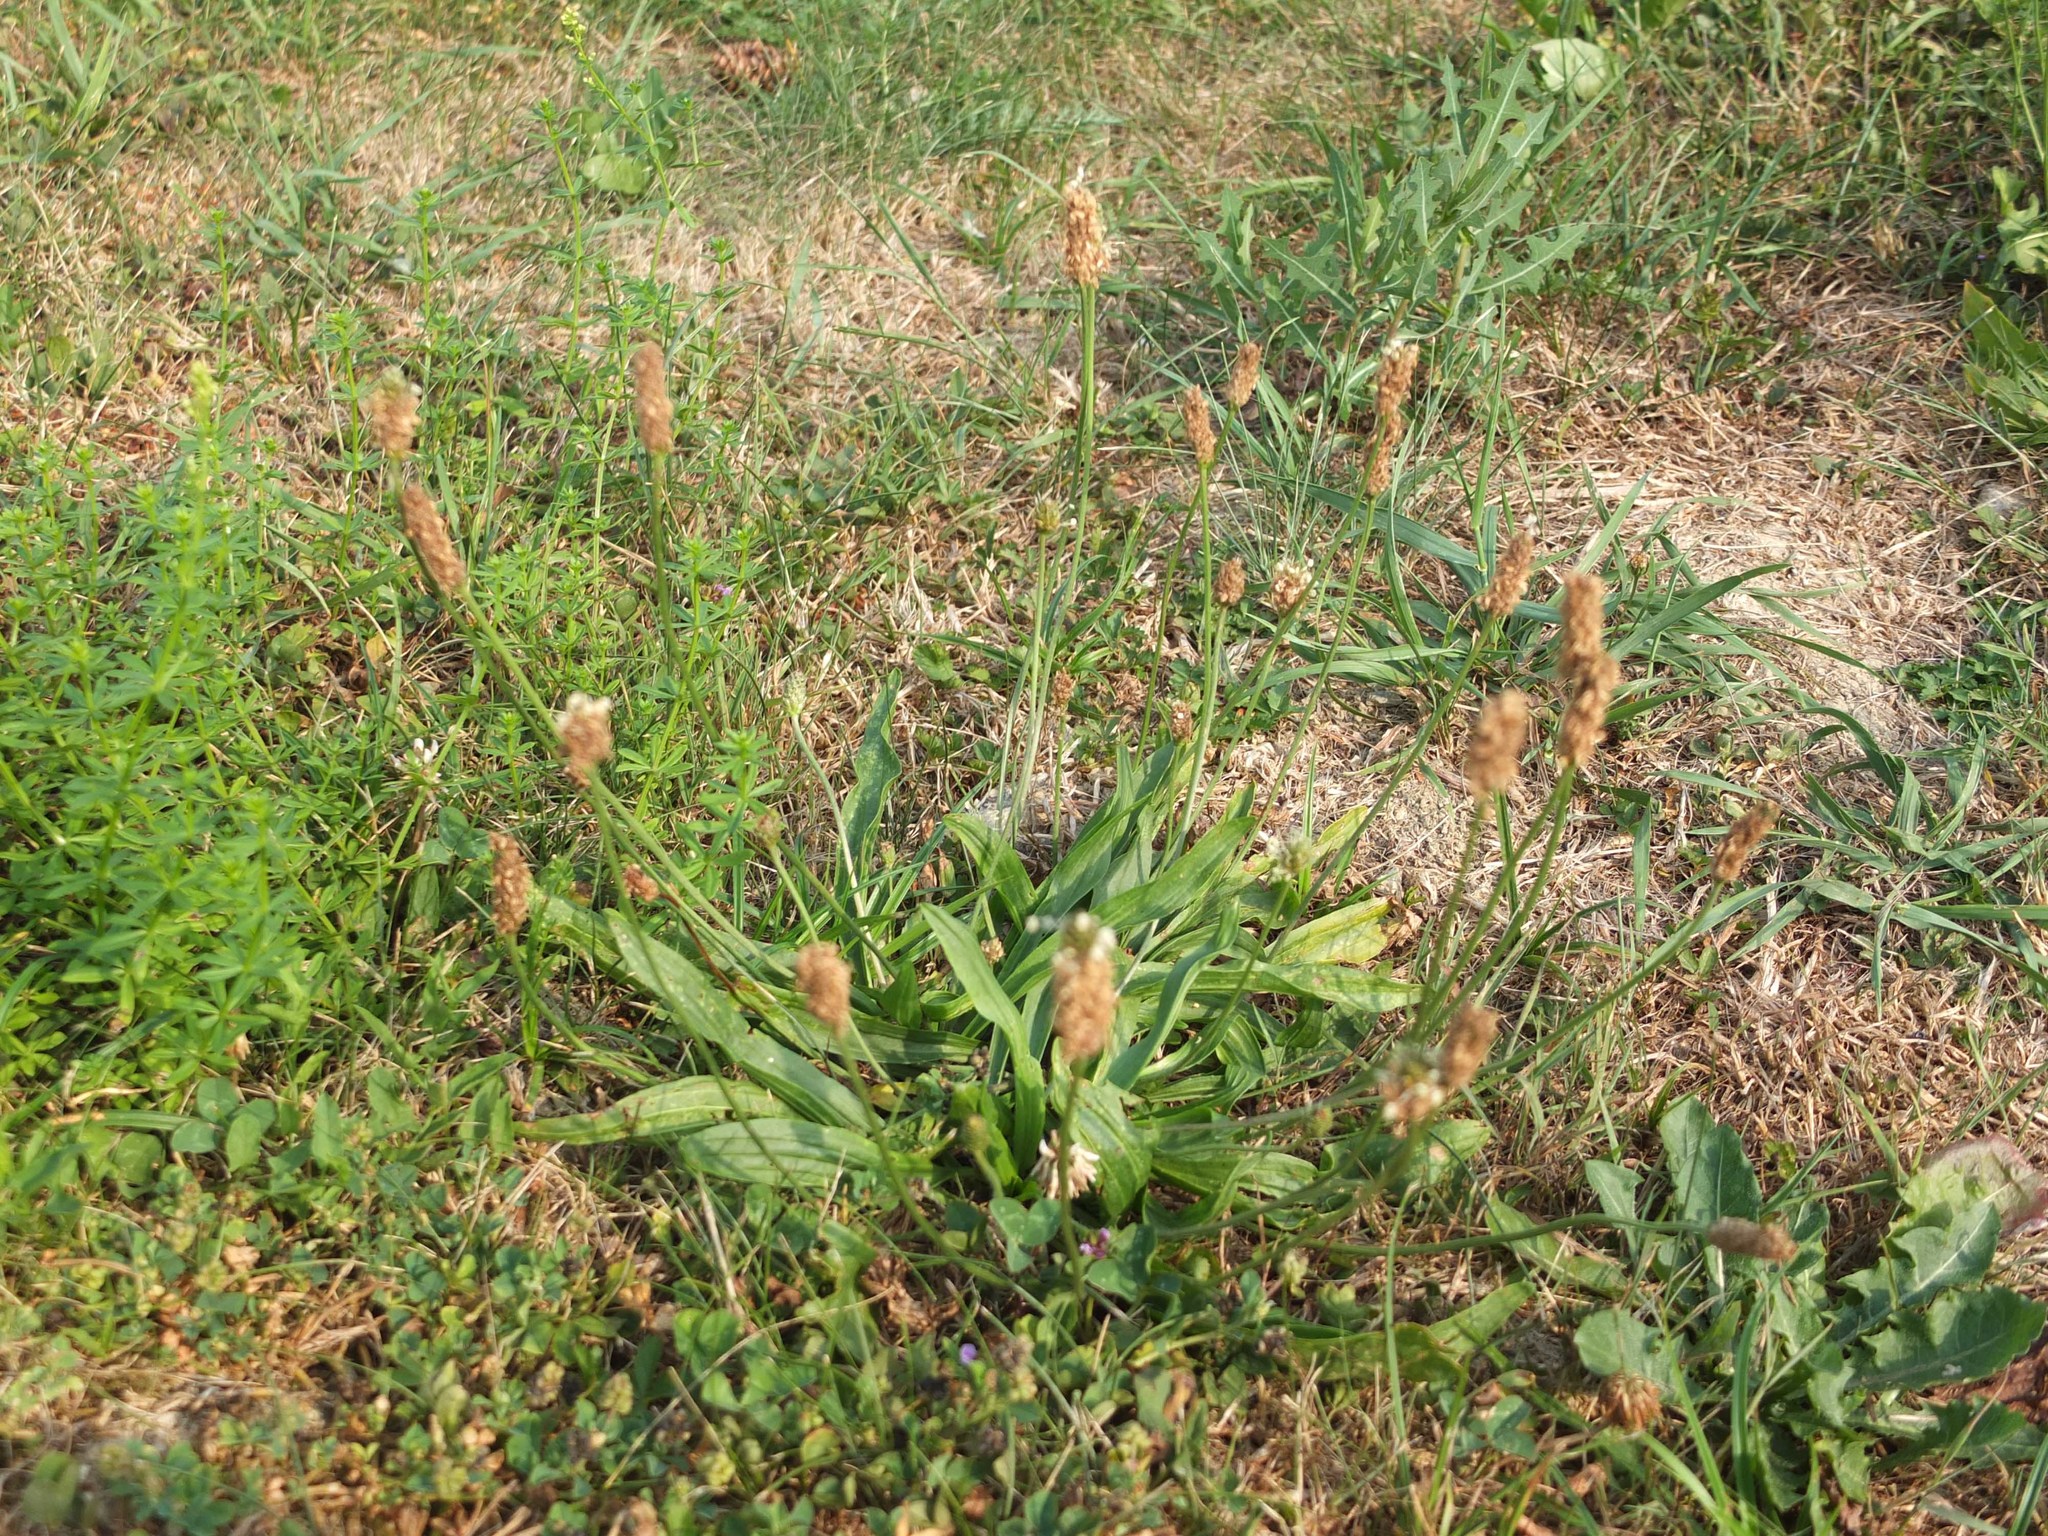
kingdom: Plantae
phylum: Tracheophyta
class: Magnoliopsida
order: Lamiales
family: Plantaginaceae
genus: Plantago
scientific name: Plantago lanceolata
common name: Ribwort plantain
